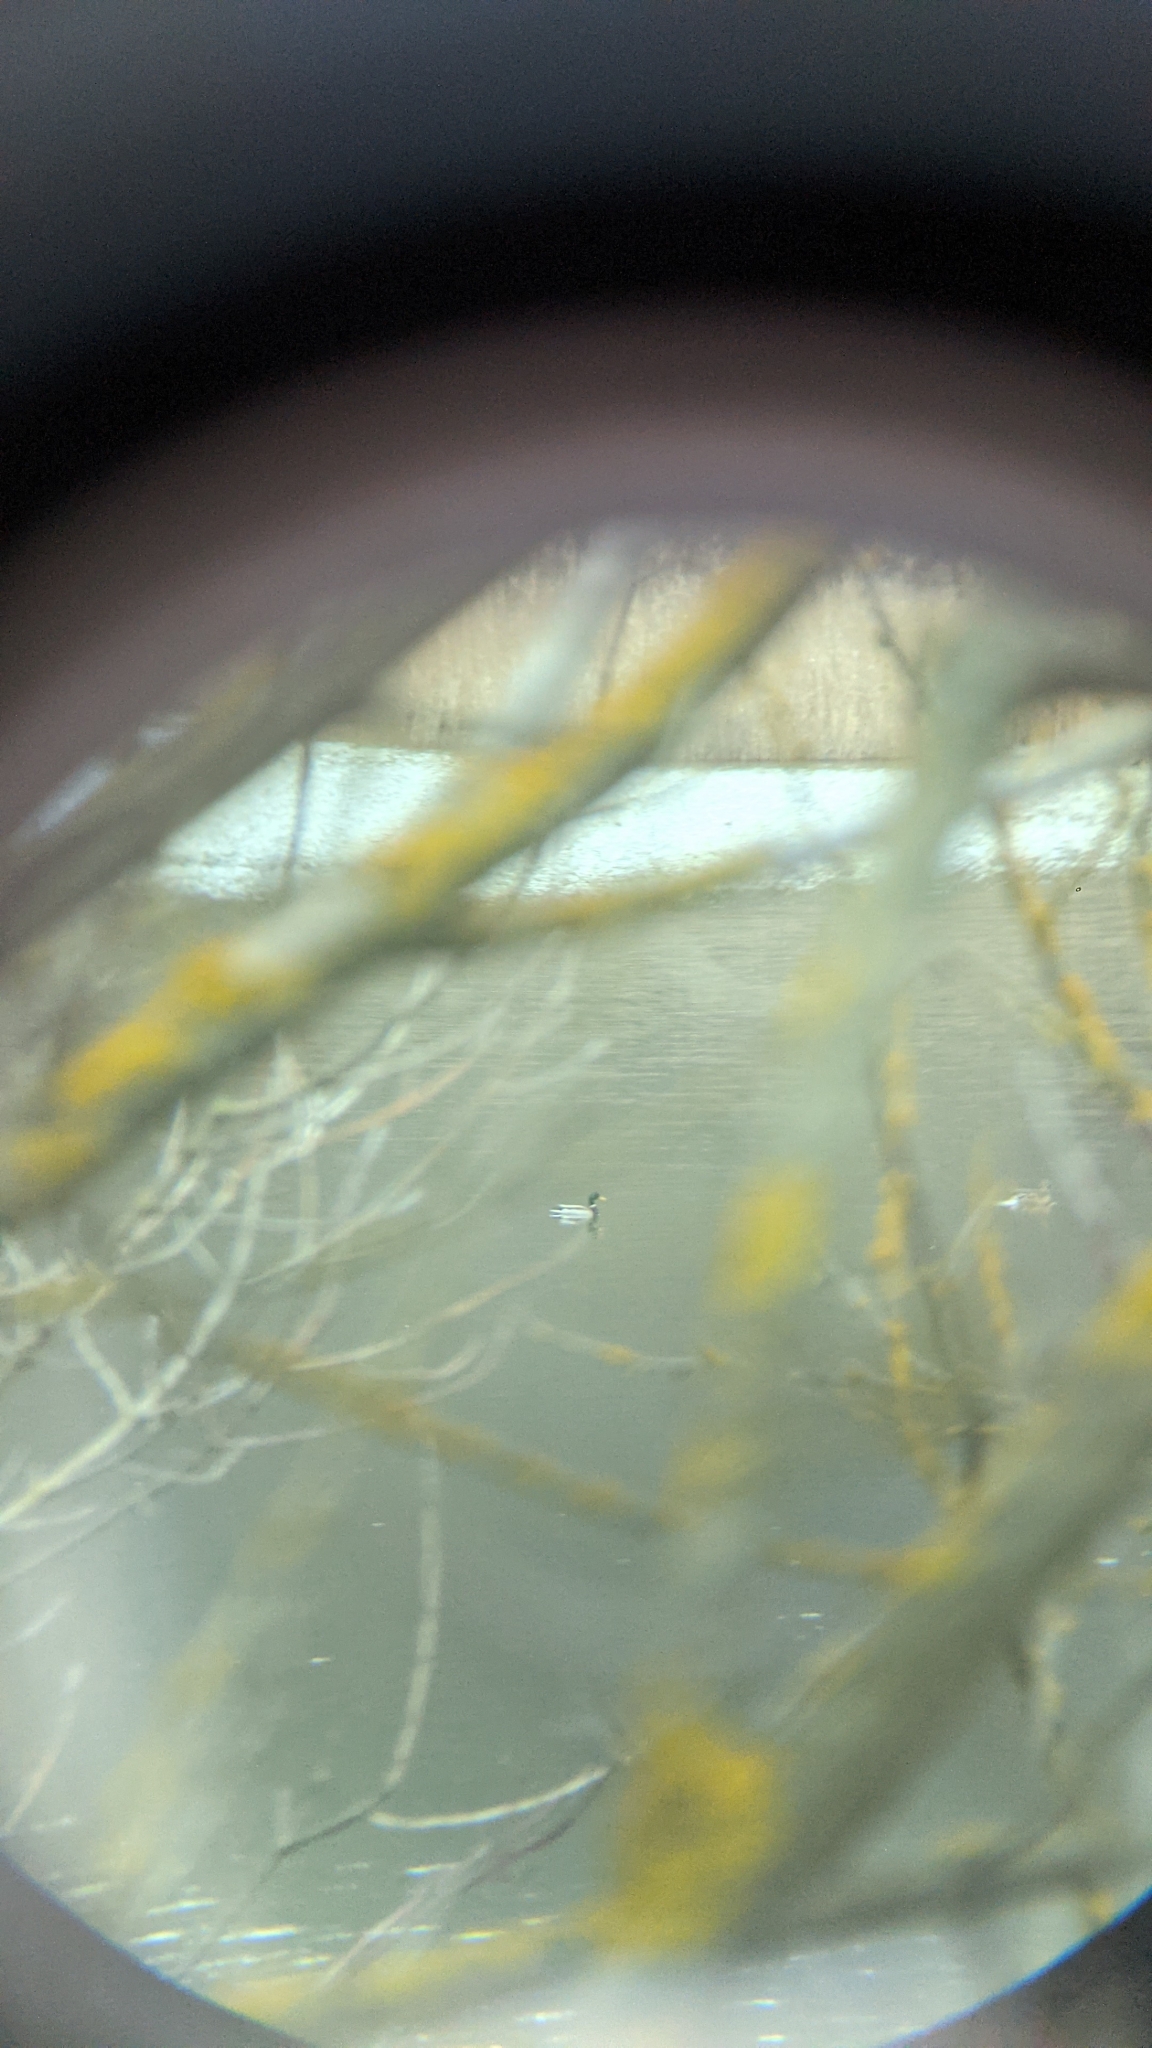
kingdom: Animalia
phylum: Chordata
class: Aves
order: Anseriformes
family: Anatidae
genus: Anas
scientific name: Anas platyrhynchos
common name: Mallard
